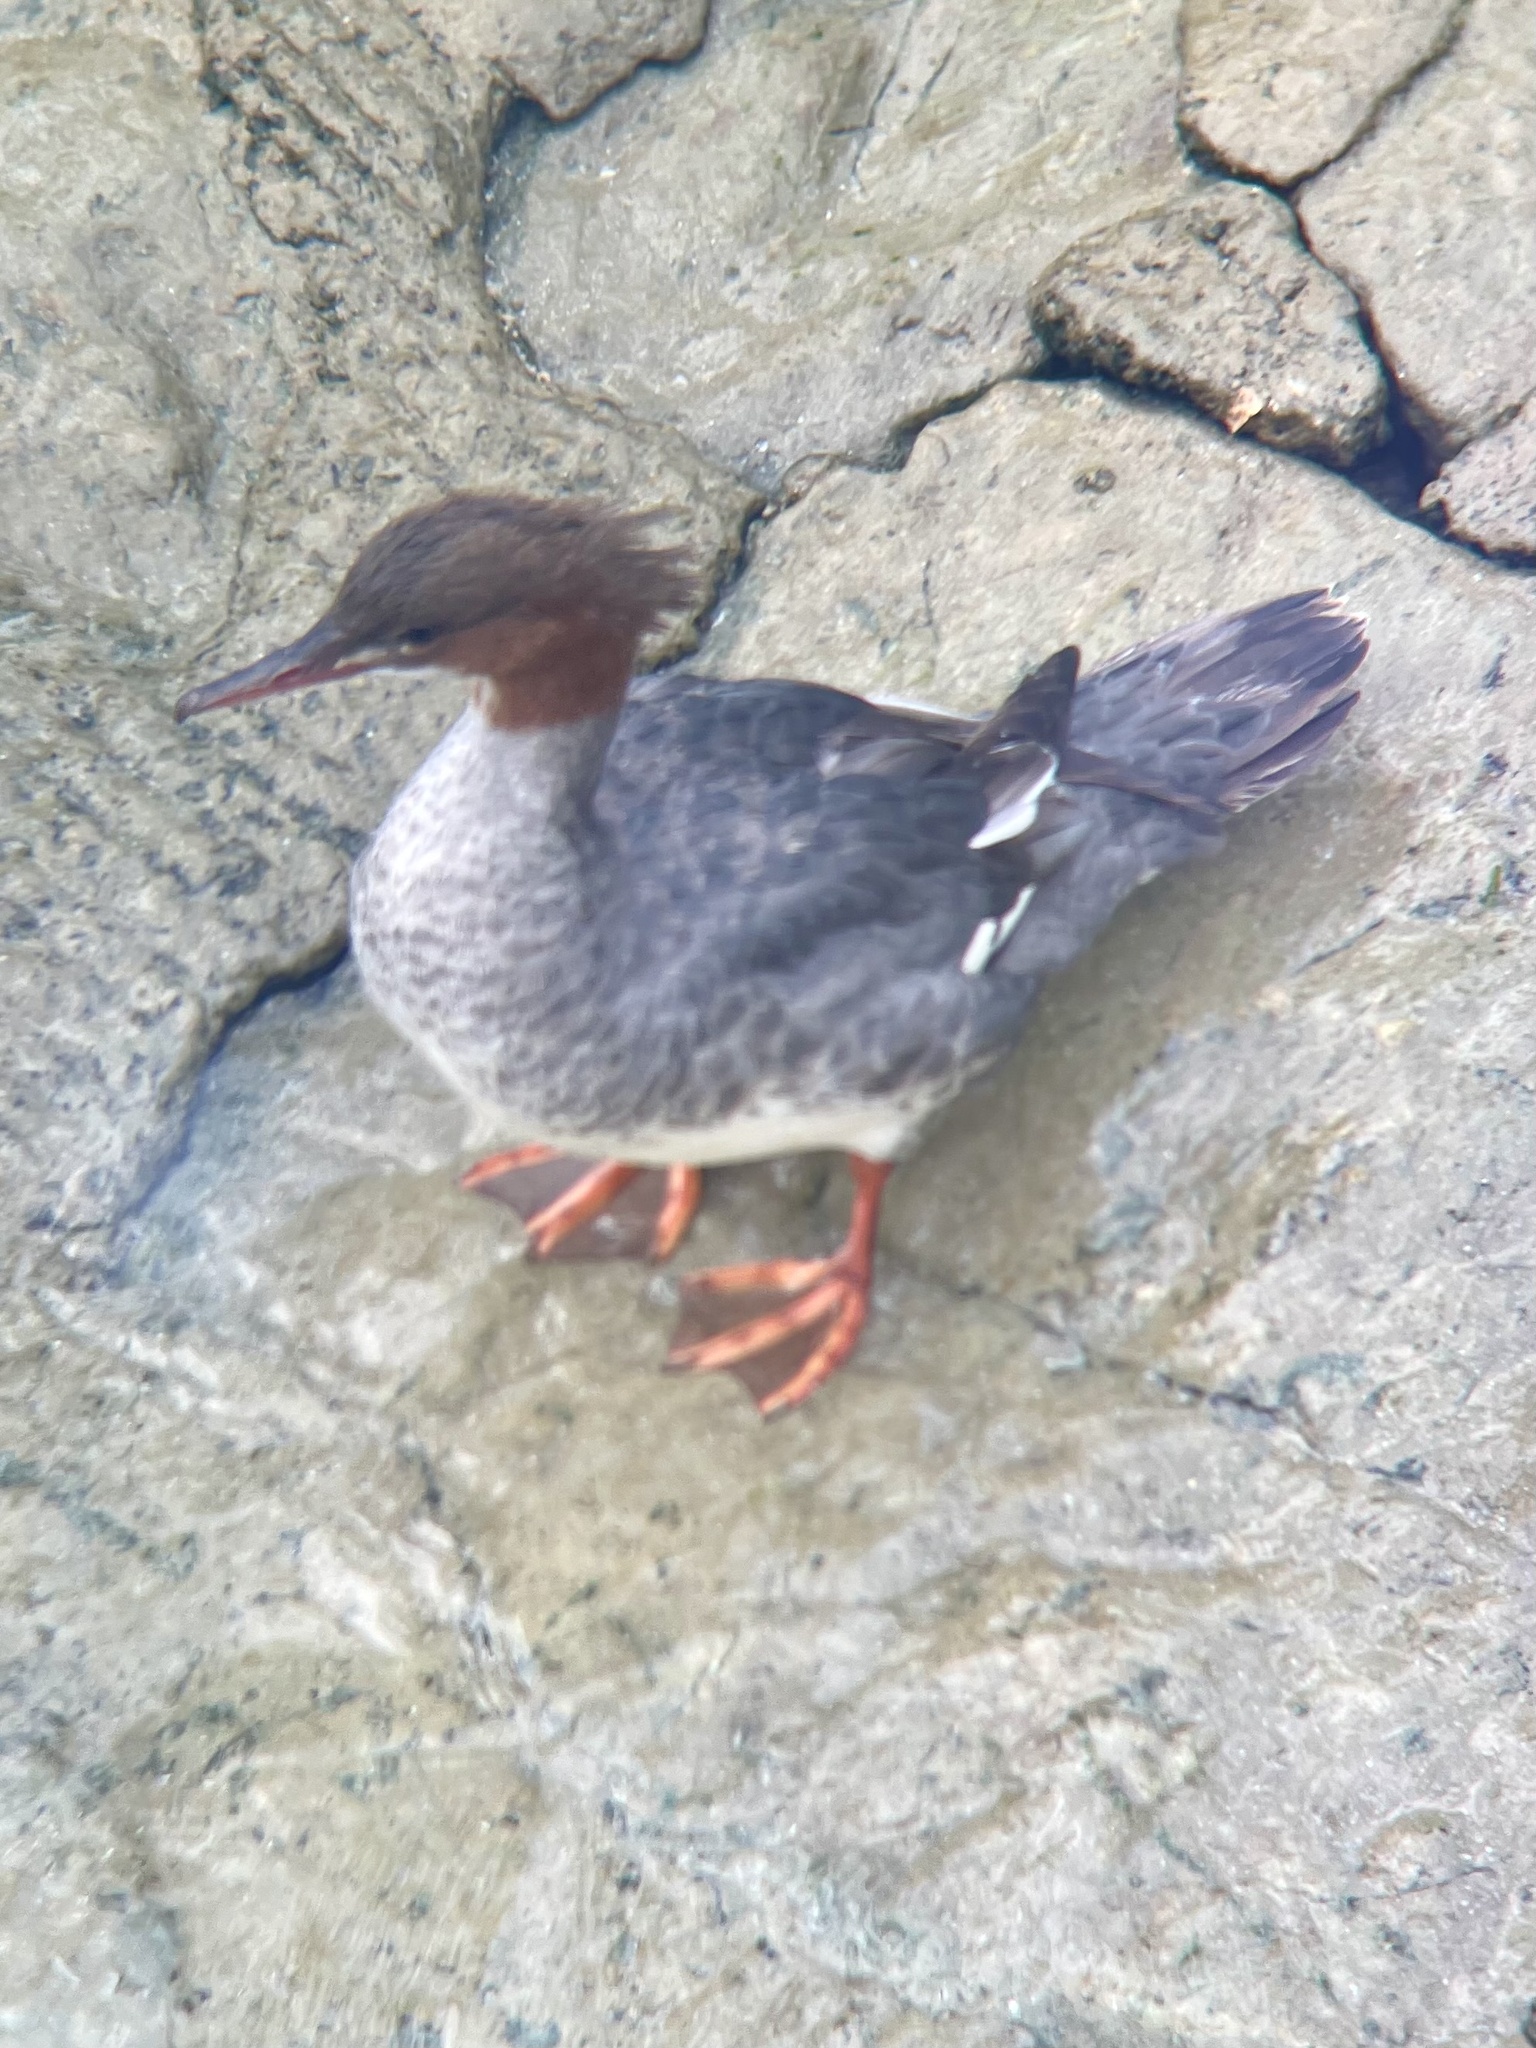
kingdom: Animalia
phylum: Chordata
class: Aves
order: Anseriformes
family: Anatidae
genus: Mergus
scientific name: Mergus merganser
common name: Common merganser
